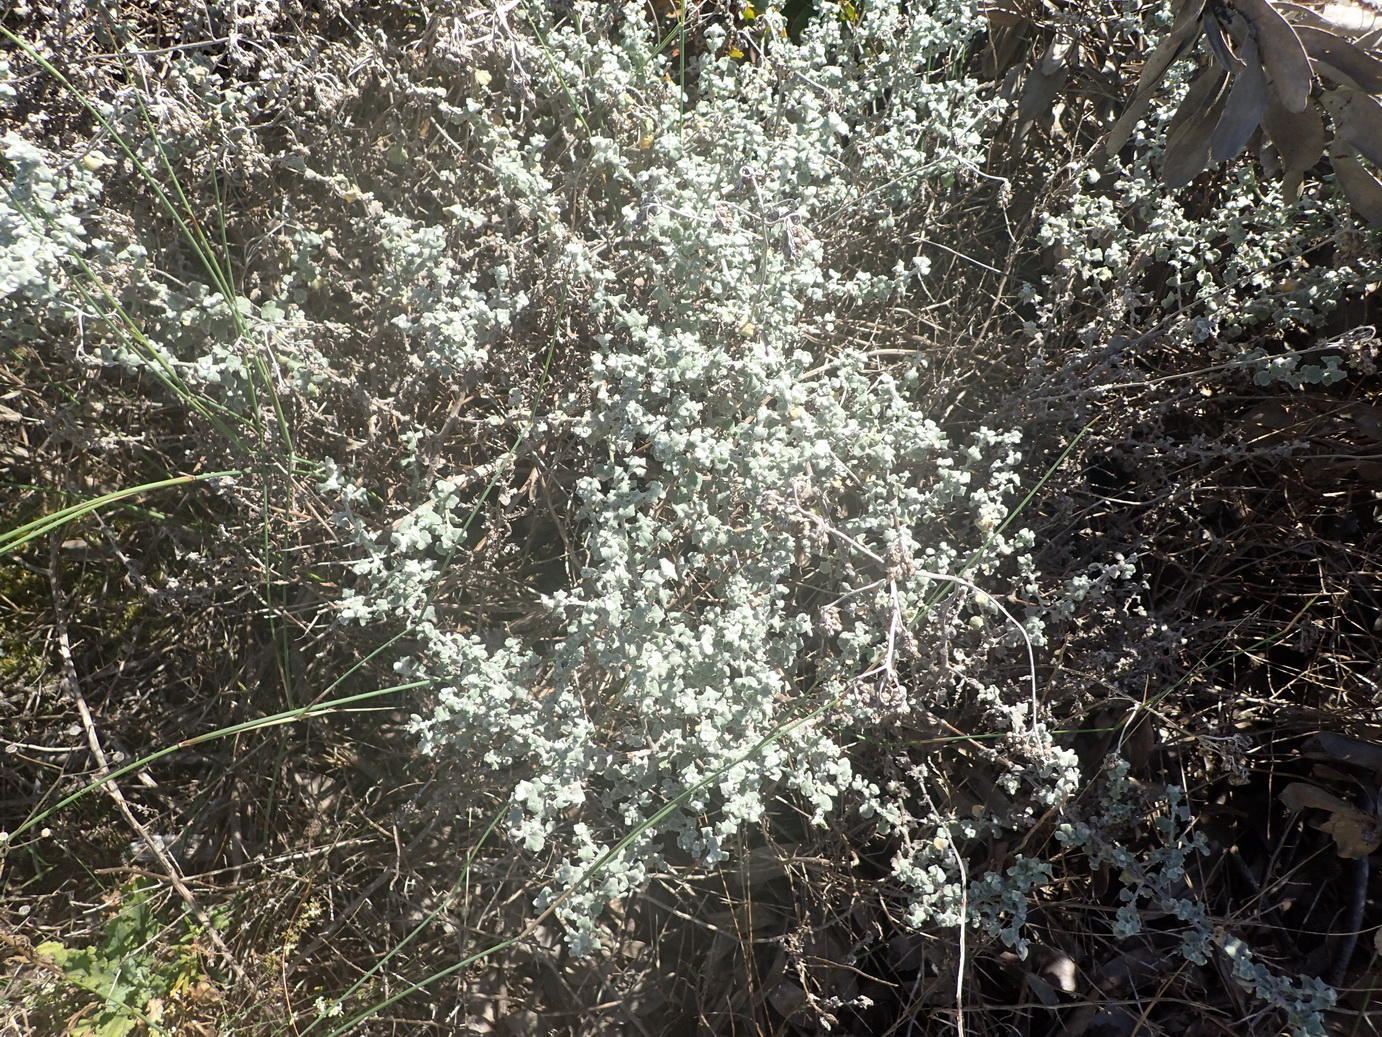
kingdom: Plantae
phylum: Tracheophyta
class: Magnoliopsida
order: Asterales
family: Asteraceae
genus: Helichrysum
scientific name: Helichrysum patulum
